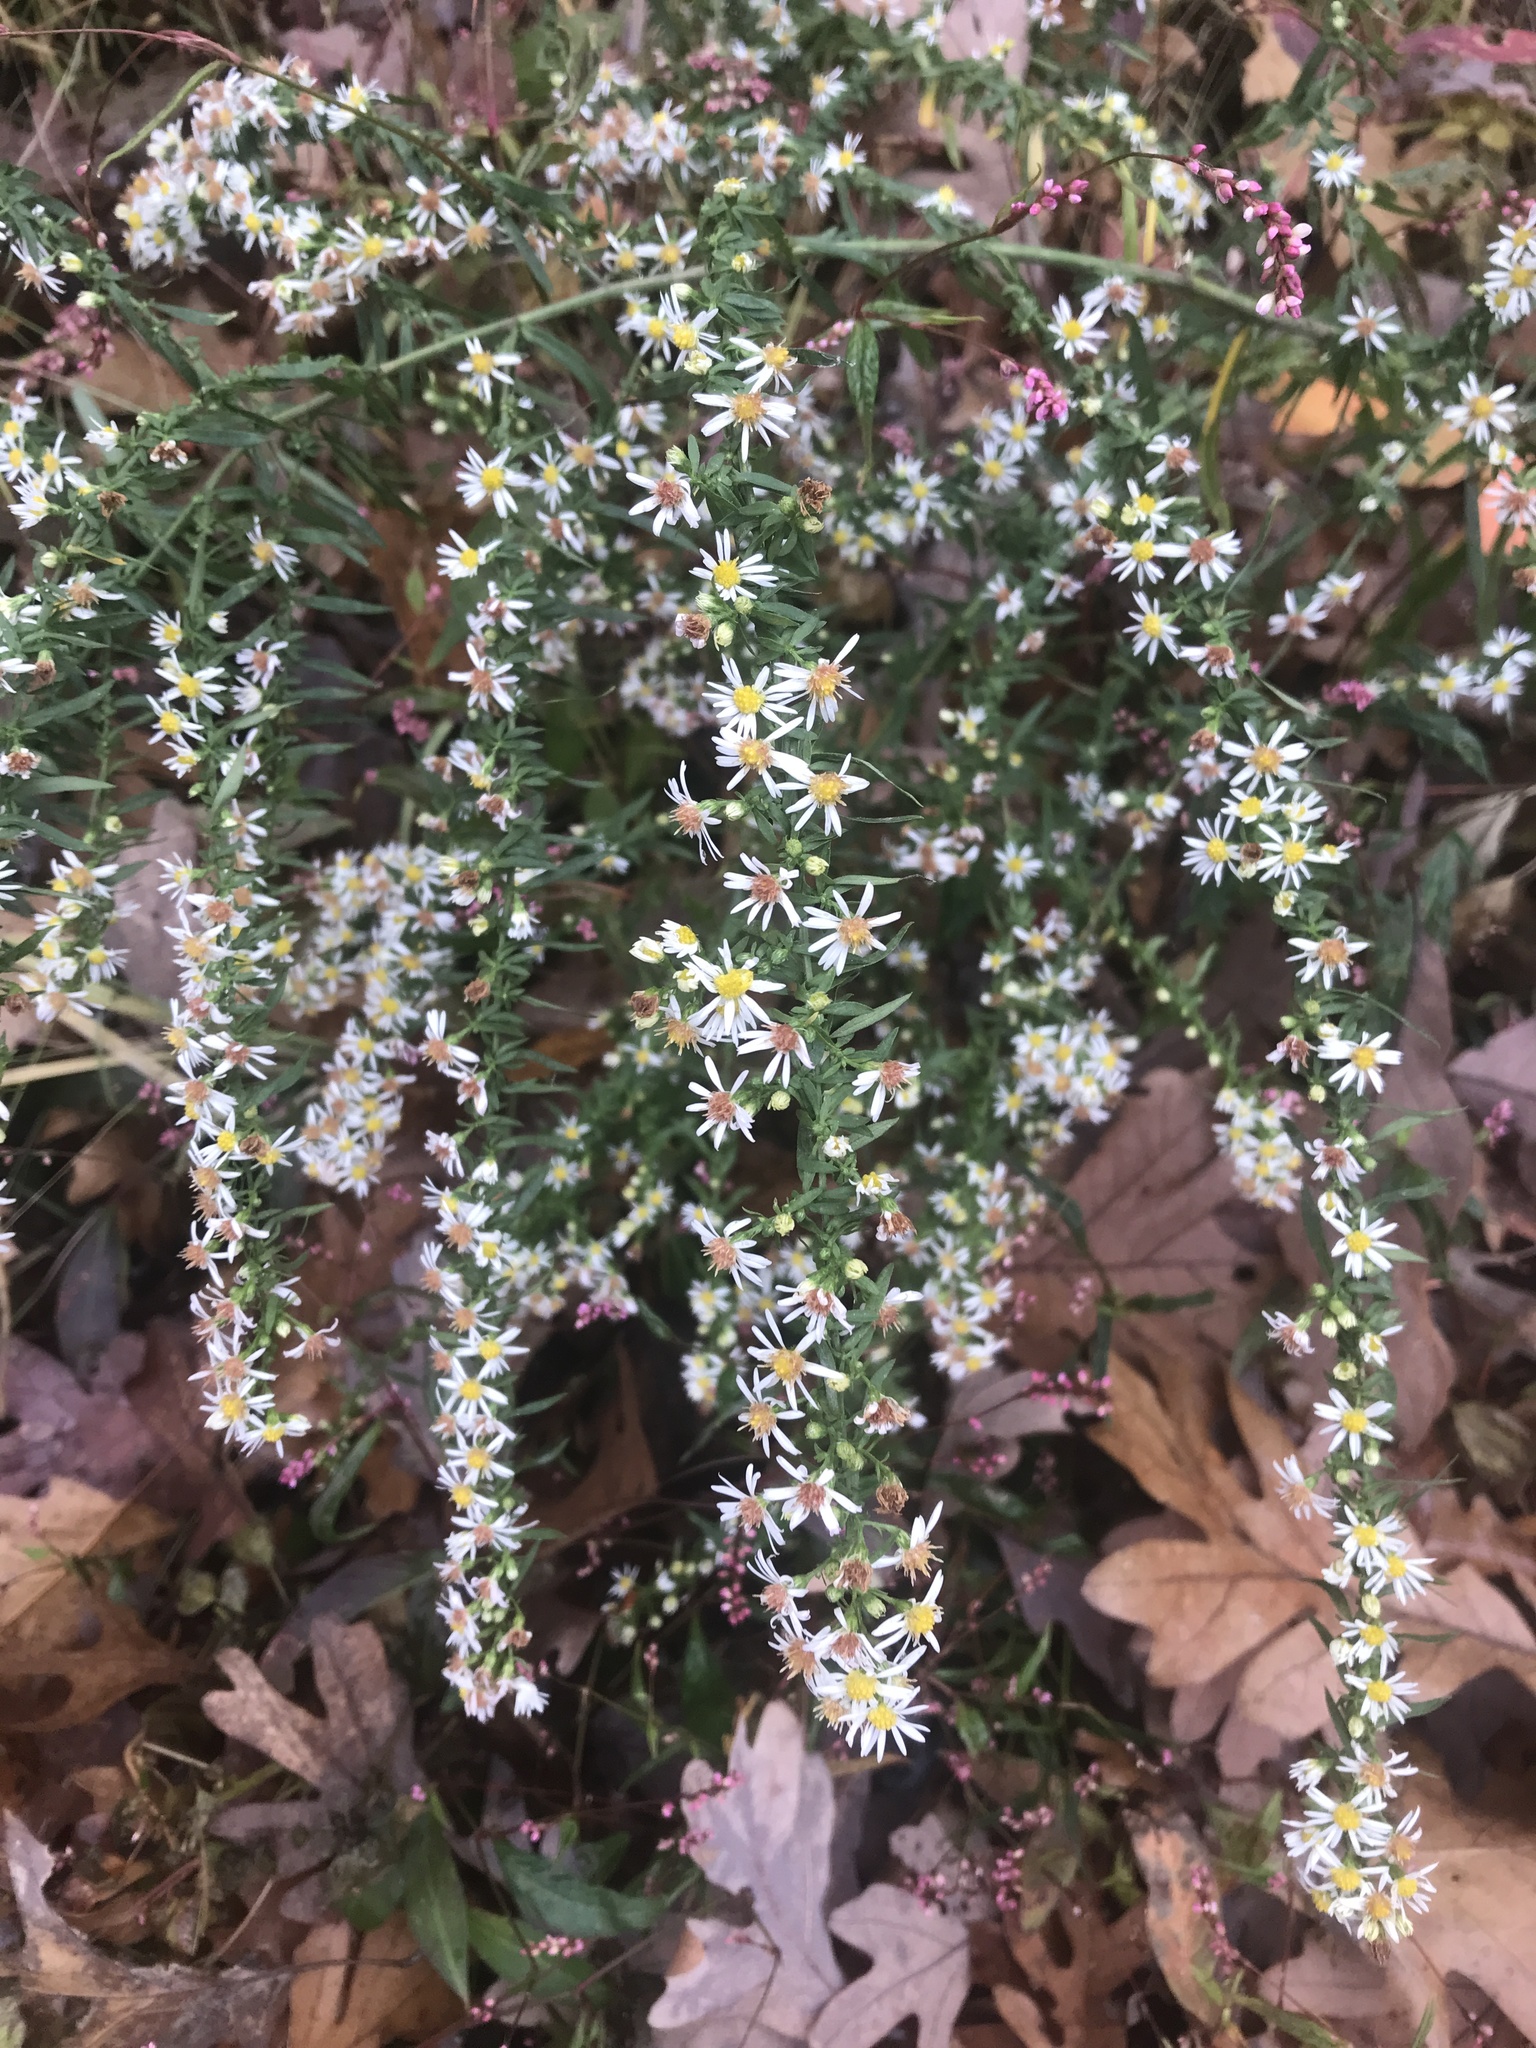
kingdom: Plantae
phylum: Tracheophyta
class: Magnoliopsida
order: Asterales
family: Asteraceae
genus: Symphyotrichum
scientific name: Symphyotrichum ericoides
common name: Heath aster
